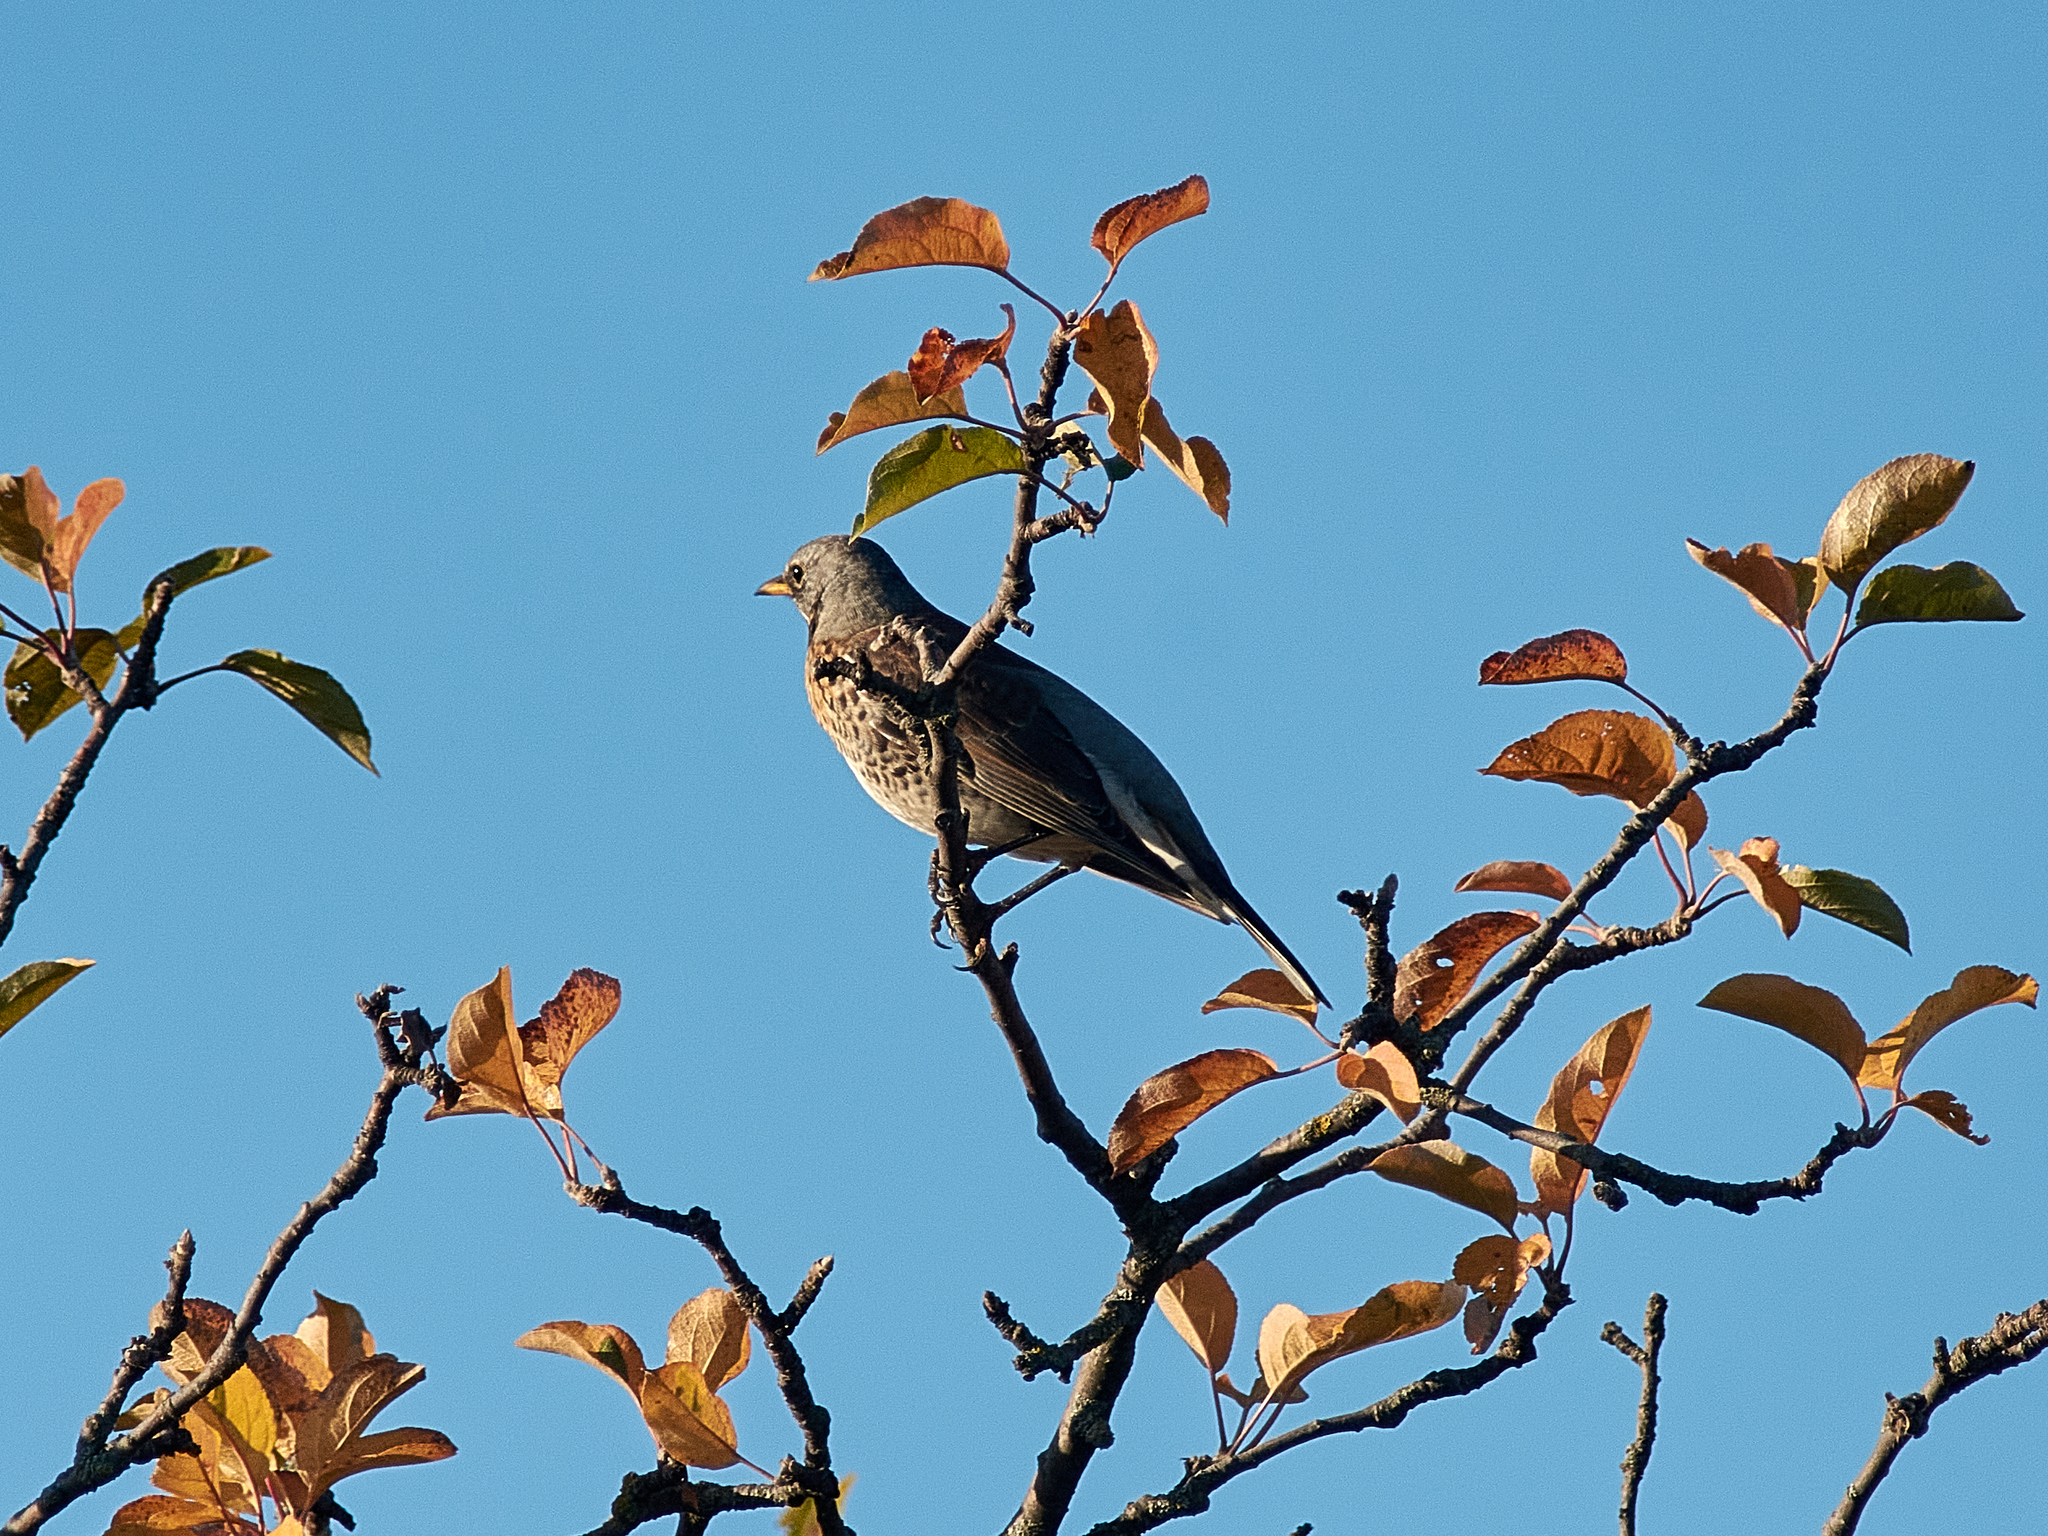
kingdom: Animalia
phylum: Chordata
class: Aves
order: Passeriformes
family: Turdidae
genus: Turdus
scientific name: Turdus pilaris
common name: Fieldfare
